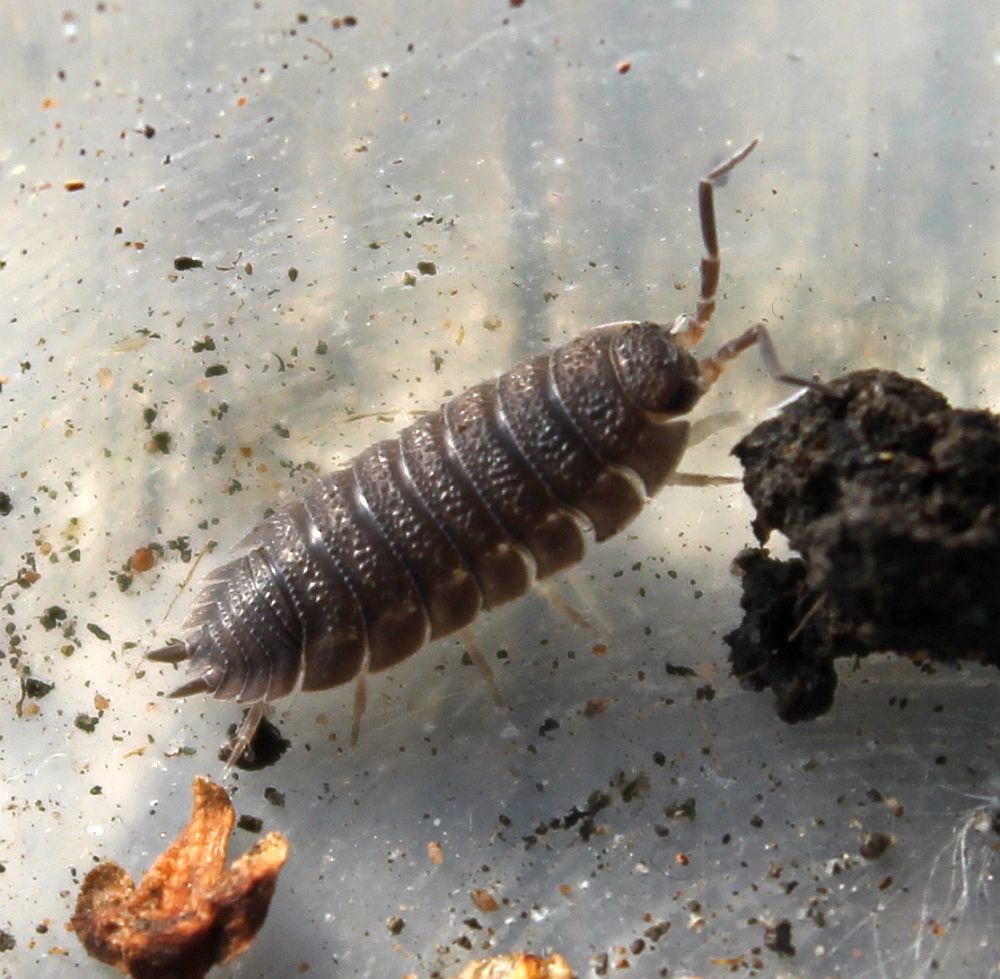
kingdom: Animalia
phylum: Arthropoda
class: Malacostraca
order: Isopoda
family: Porcellionidae
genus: Porcellio
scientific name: Porcellio scaber
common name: Common rough woodlouse
